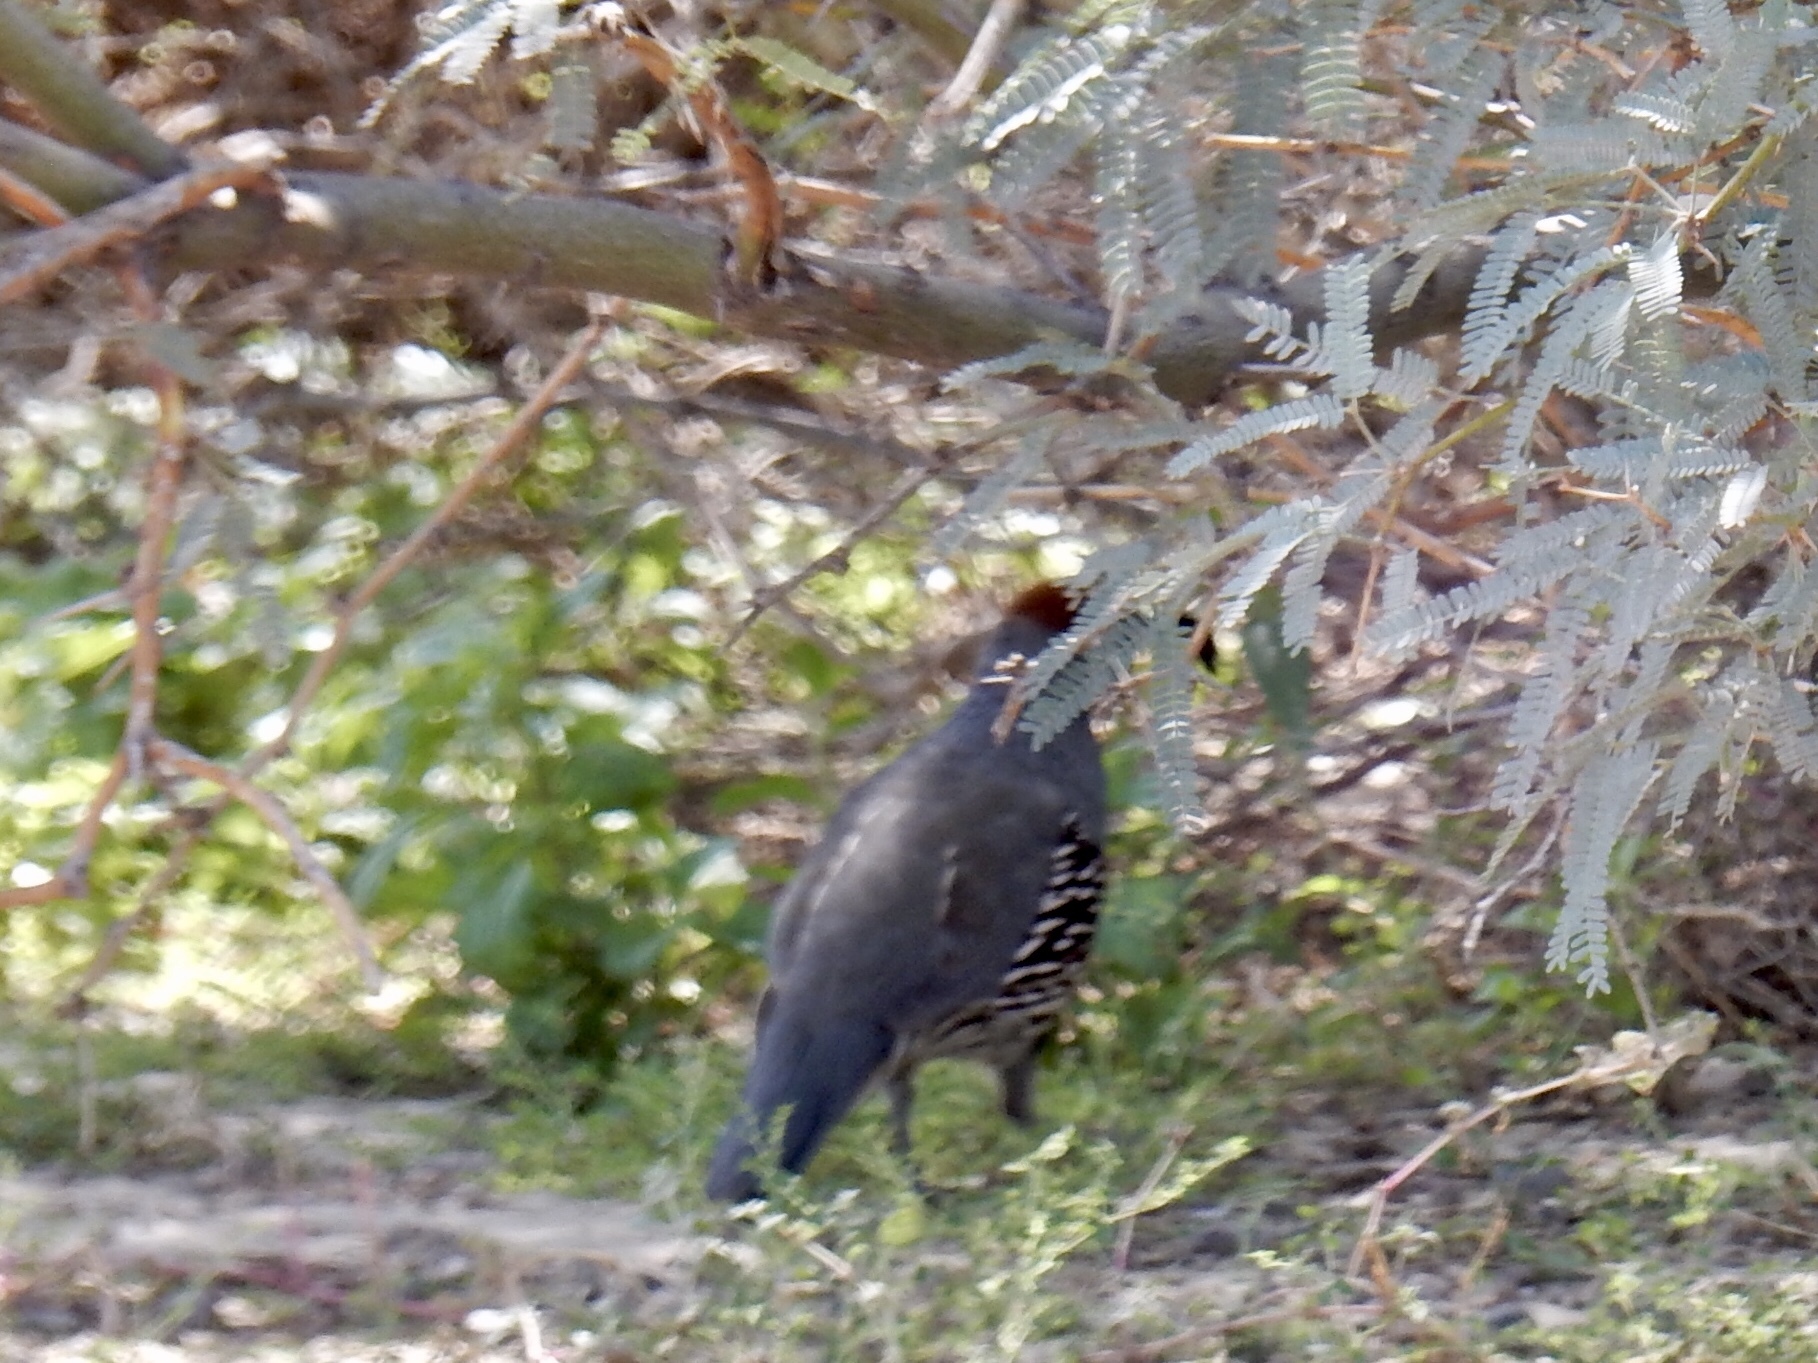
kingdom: Animalia
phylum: Chordata
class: Aves
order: Galliformes
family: Odontophoridae
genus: Callipepla
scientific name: Callipepla gambelii
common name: Gambel's quail
